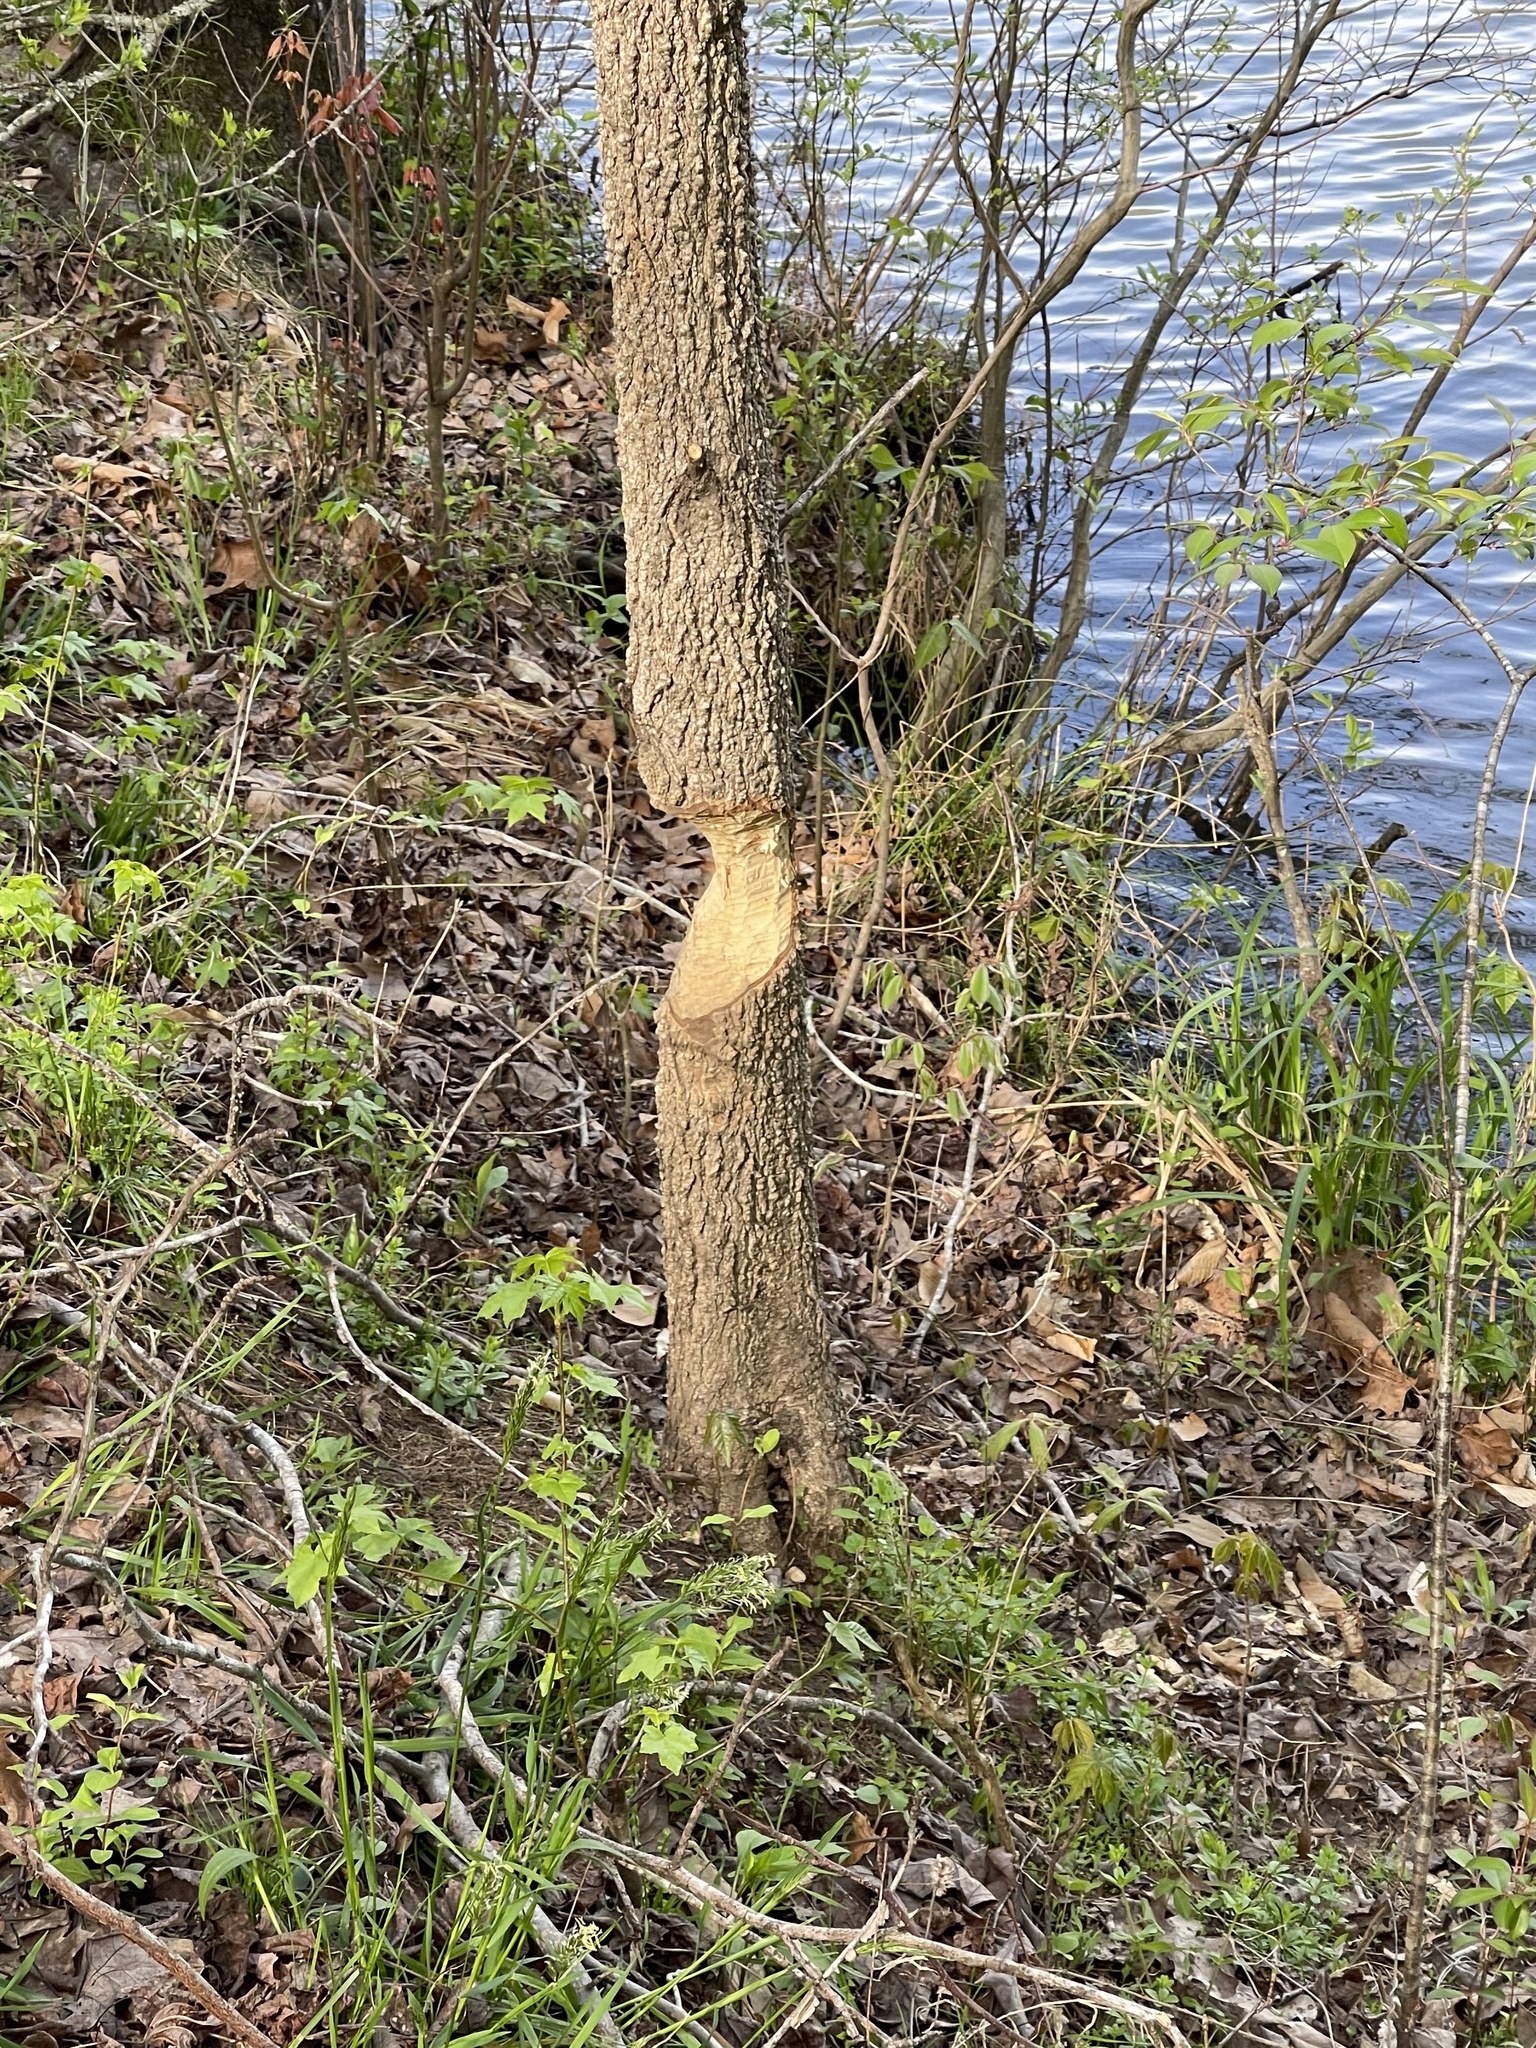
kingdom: Animalia
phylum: Chordata
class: Mammalia
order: Rodentia
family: Castoridae
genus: Castor
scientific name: Castor canadensis
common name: American beaver
